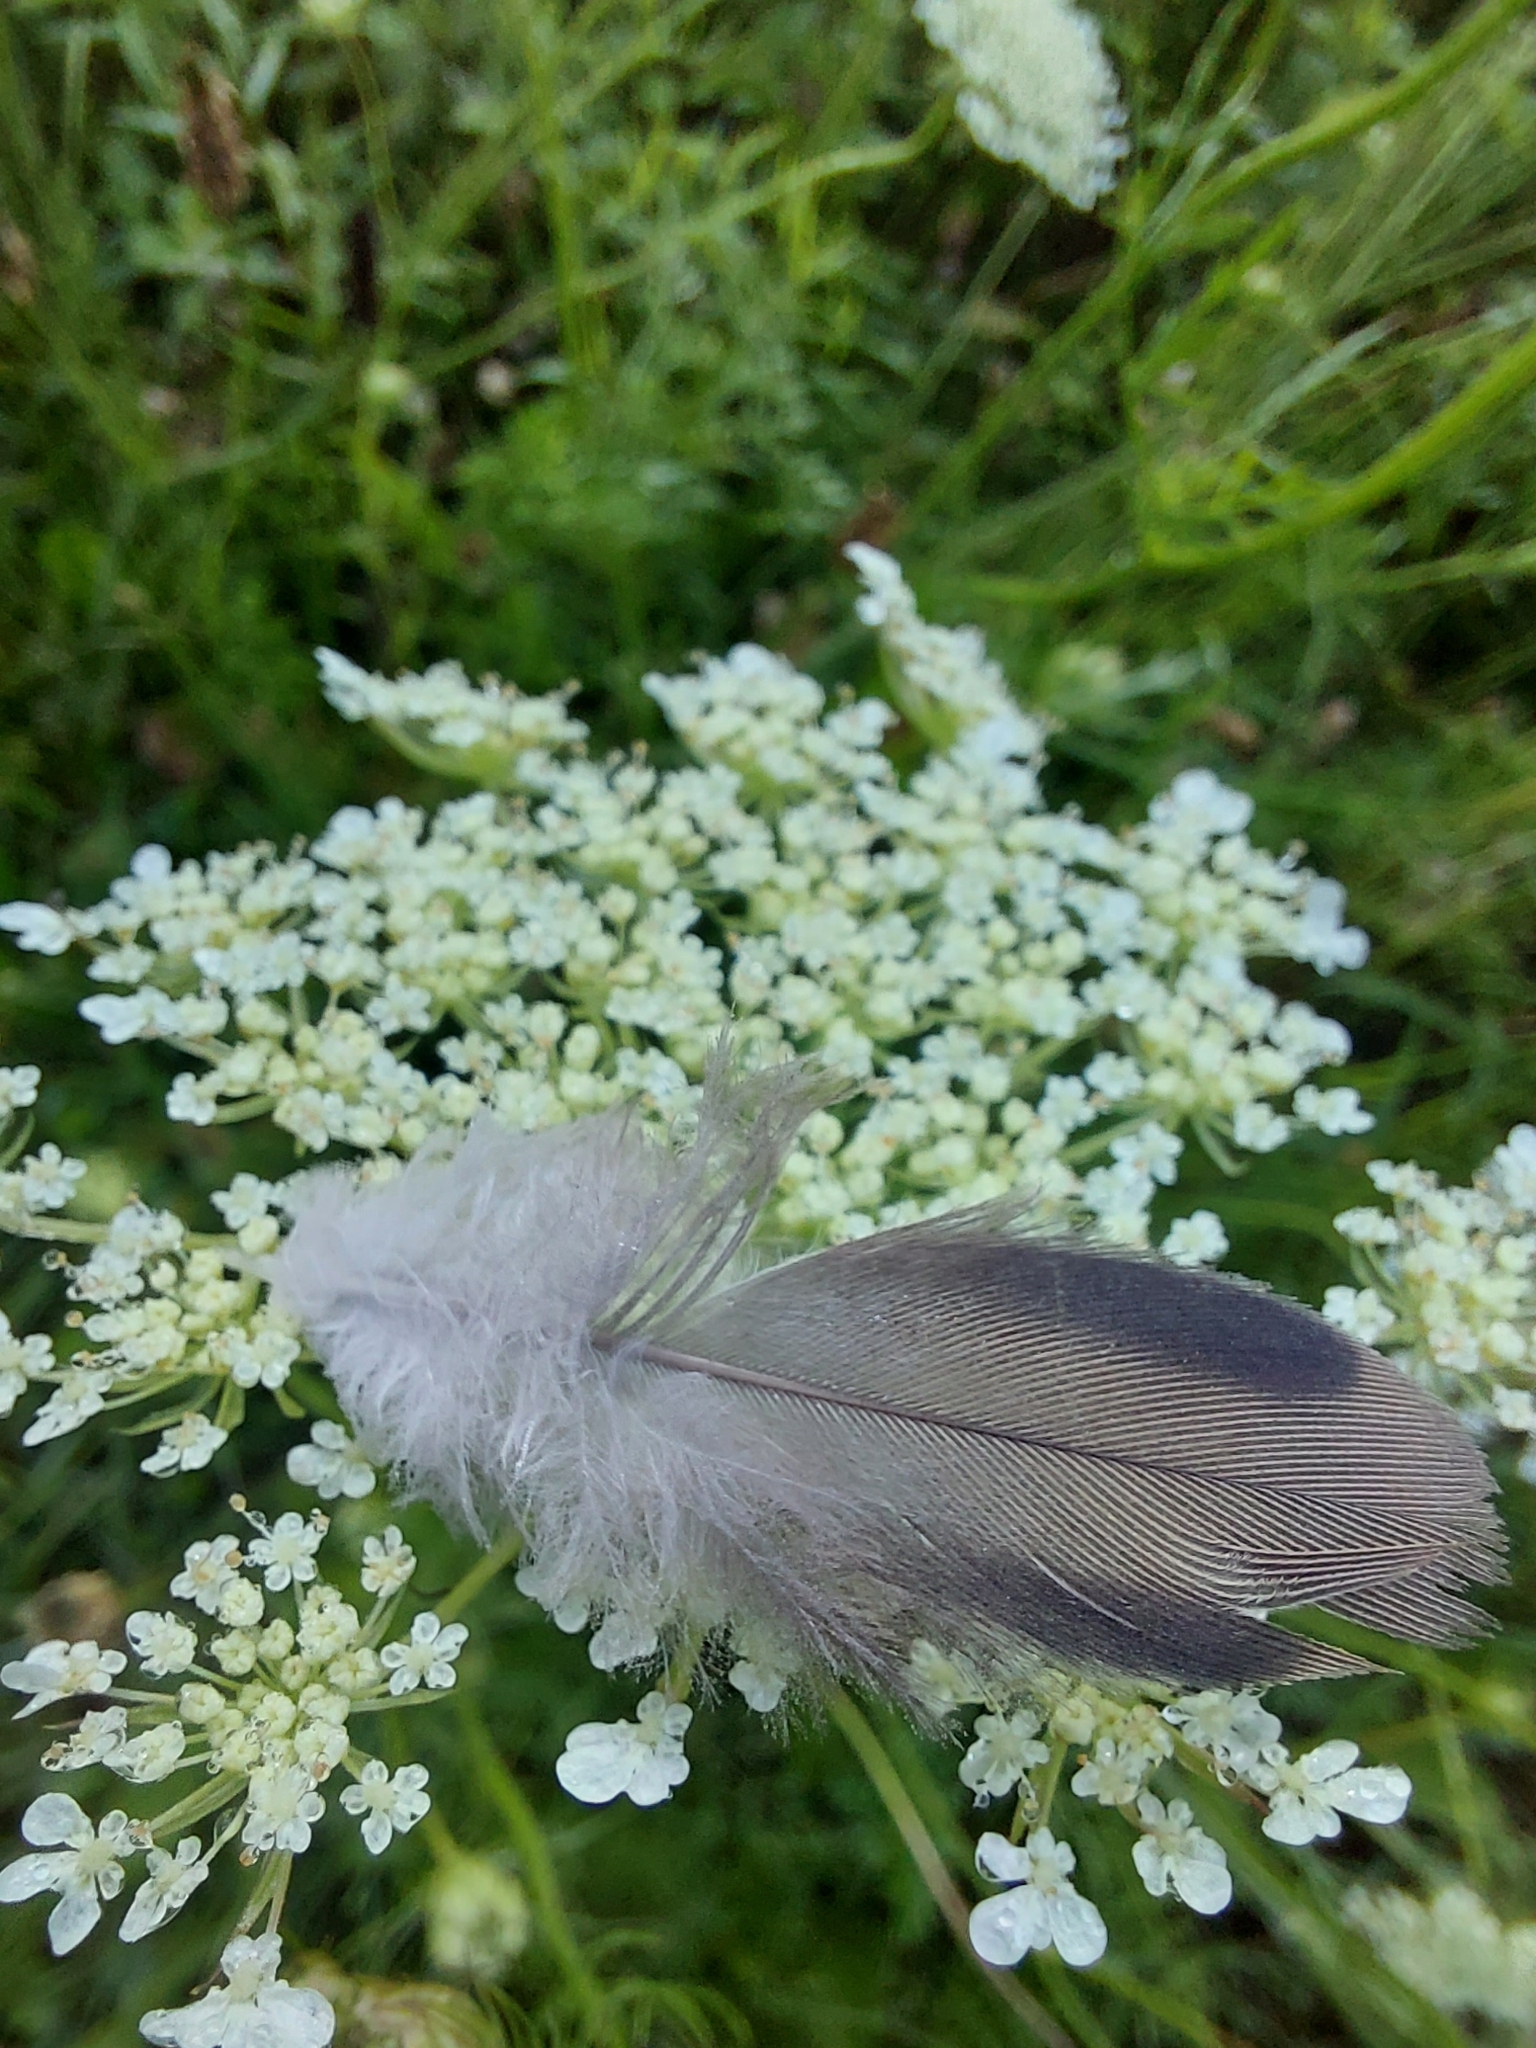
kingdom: Animalia
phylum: Chordata
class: Aves
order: Columbiformes
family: Columbidae
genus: Zenaida
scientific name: Zenaida macroura
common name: Mourning dove
